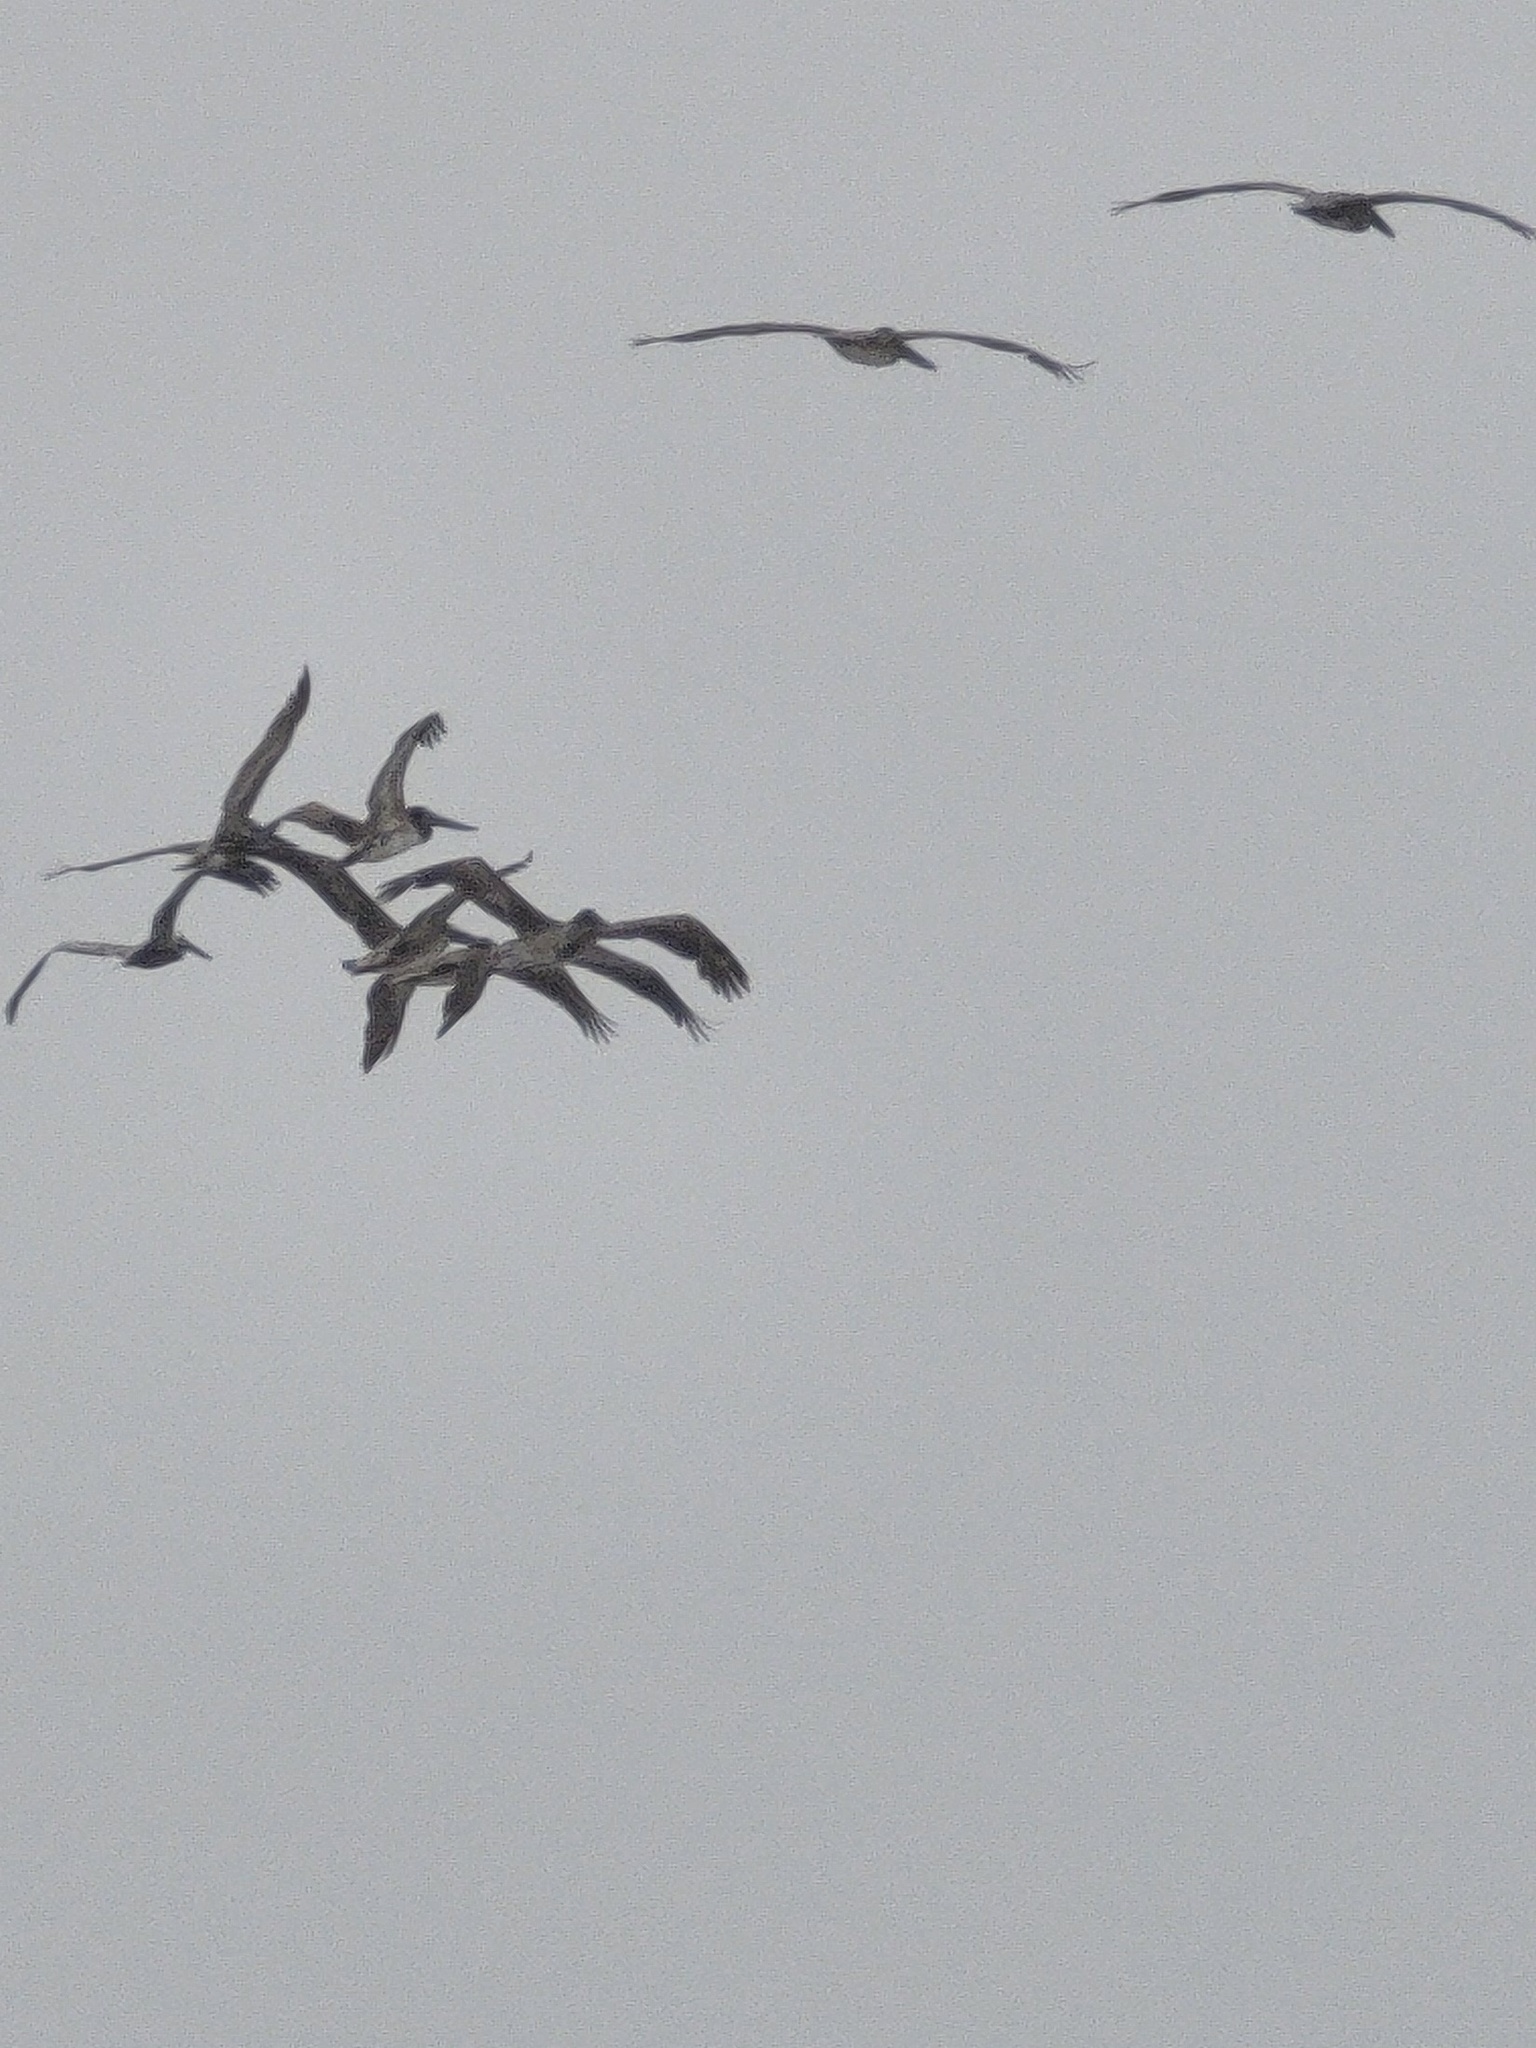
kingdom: Animalia
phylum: Chordata
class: Aves
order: Pelecaniformes
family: Pelecanidae
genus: Pelecanus
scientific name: Pelecanus occidentalis
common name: Brown pelican
